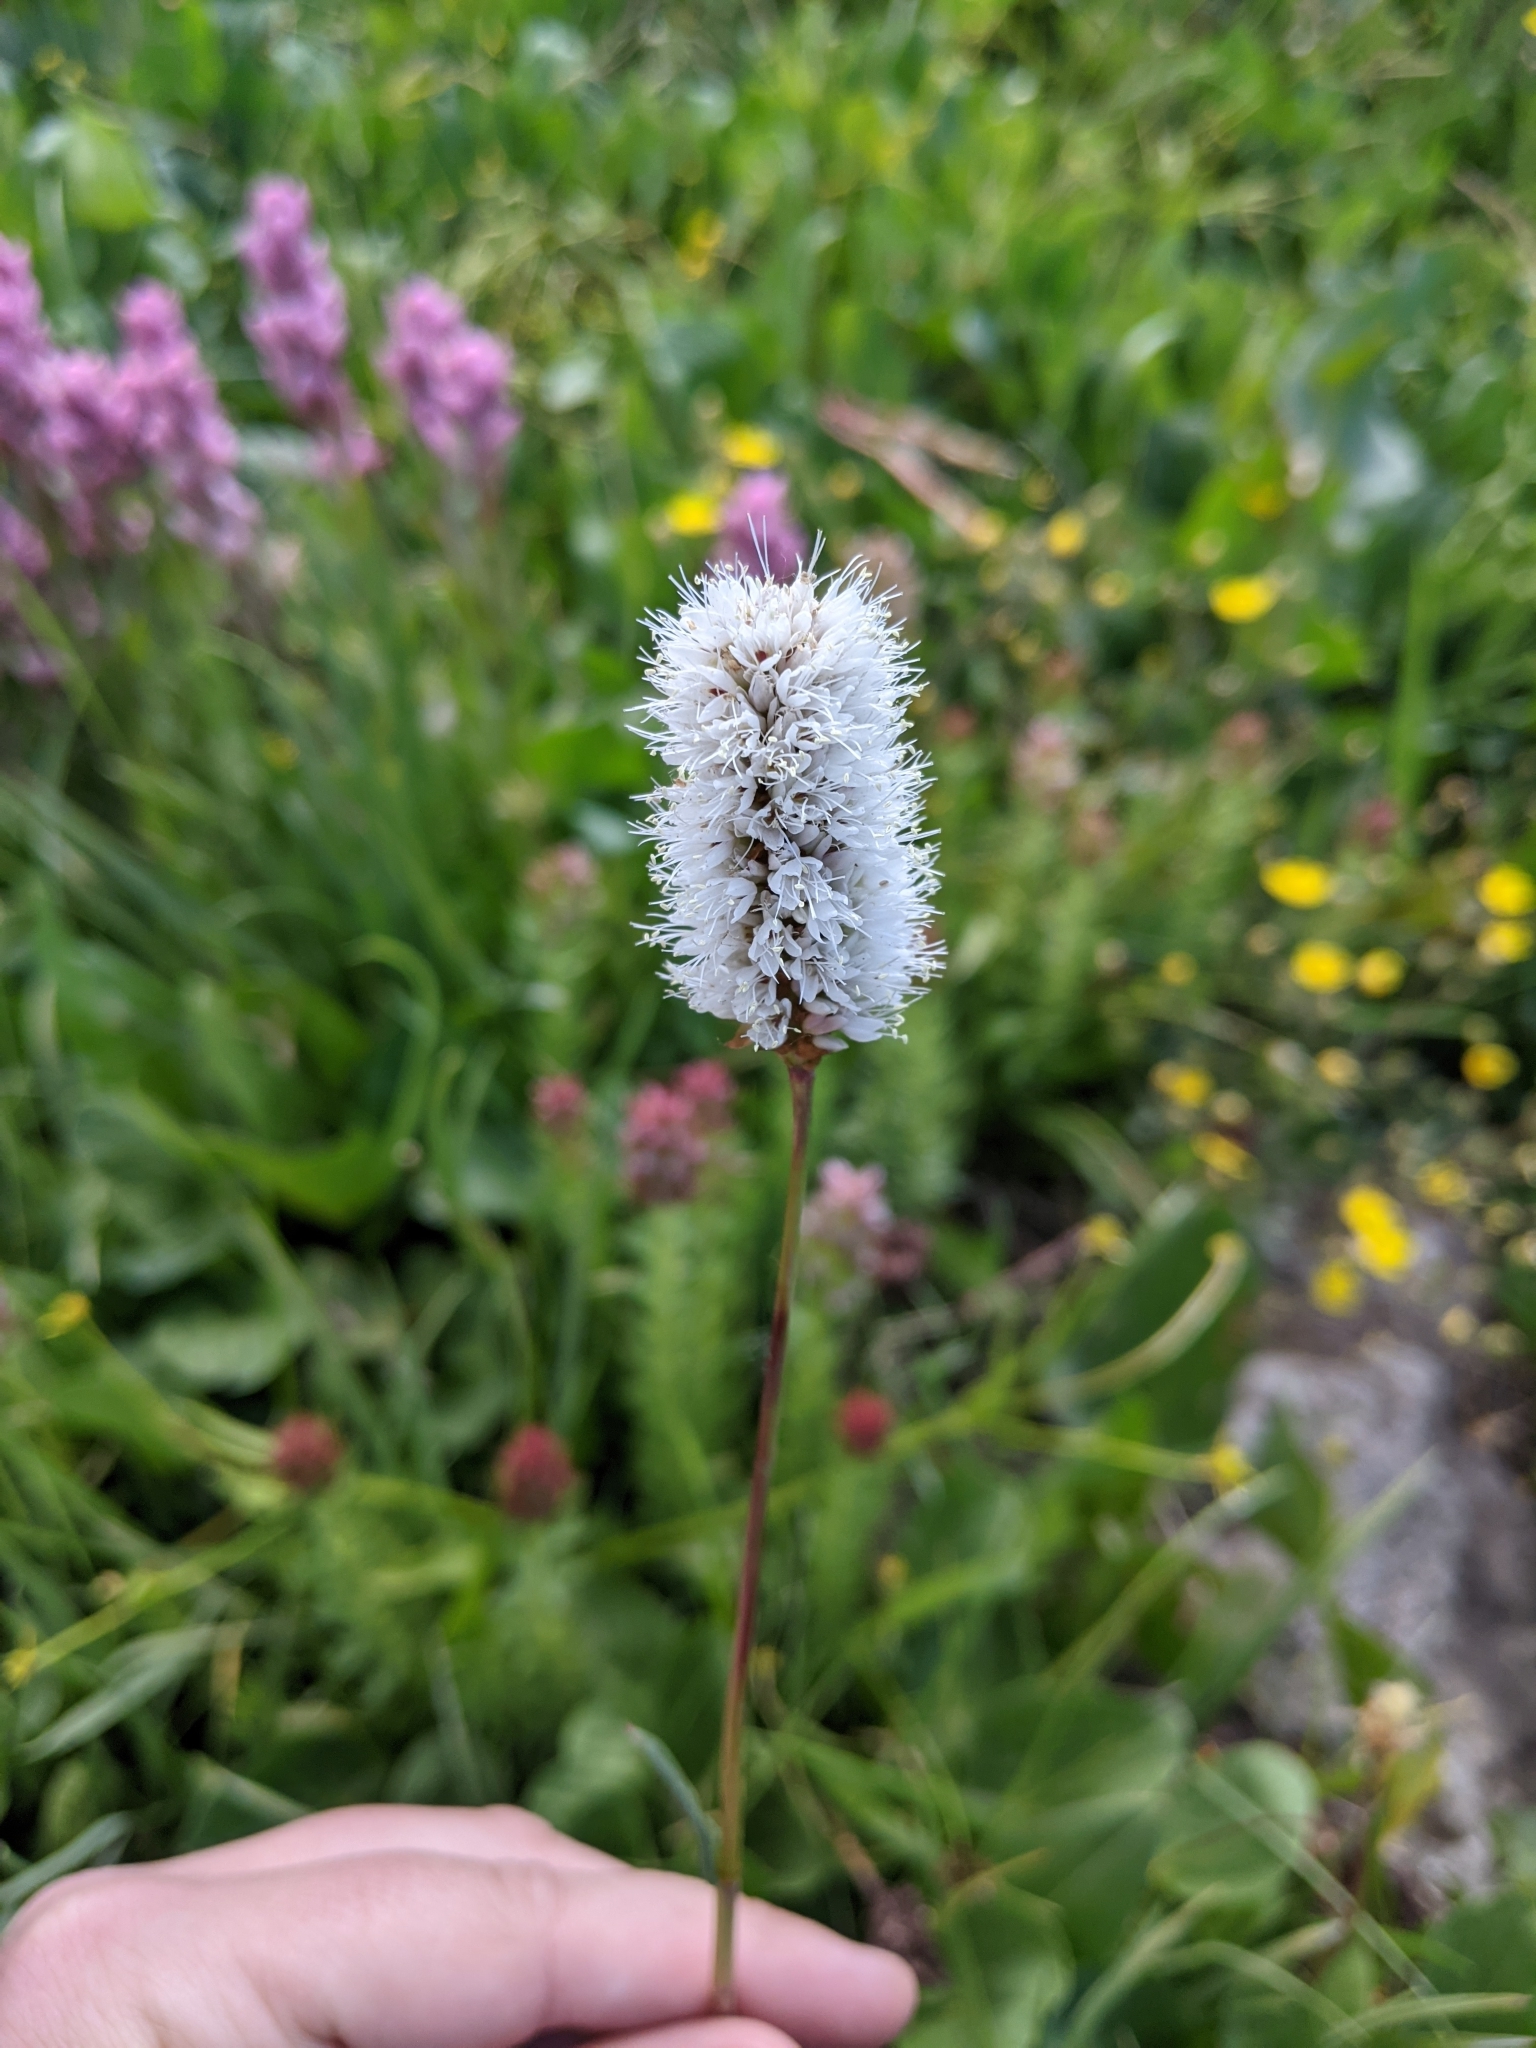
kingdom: Plantae
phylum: Tracheophyta
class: Magnoliopsida
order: Caryophyllales
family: Polygonaceae
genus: Bistorta
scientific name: Bistorta bistortoides
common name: American bistort
